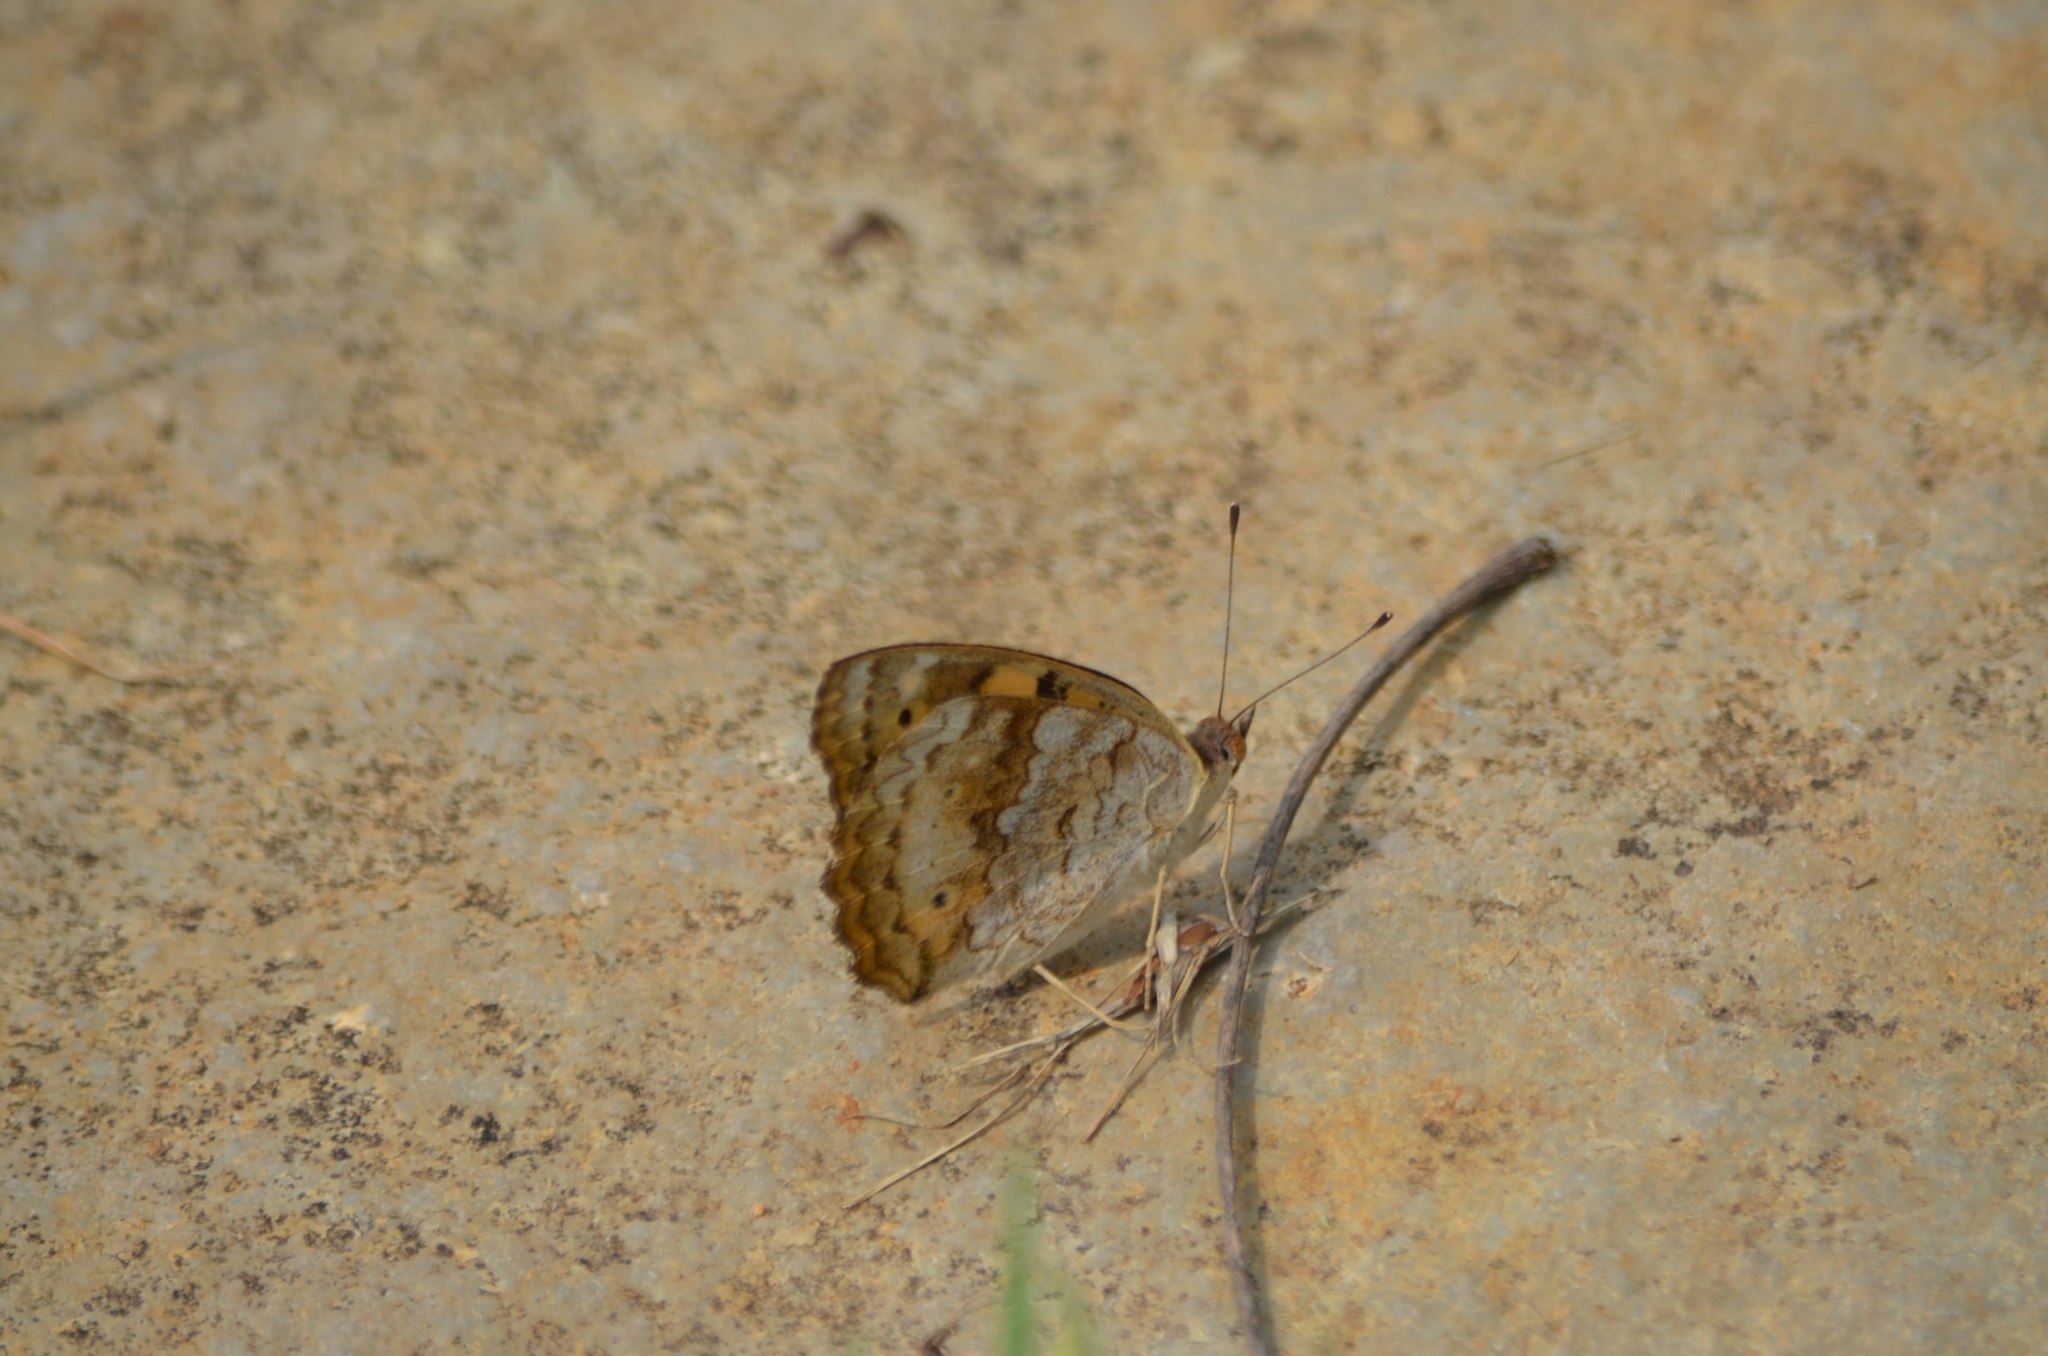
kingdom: Animalia
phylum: Arthropoda
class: Insecta
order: Lepidoptera
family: Nymphalidae
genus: Junonia
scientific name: Junonia hierta
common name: Yellow pansy
